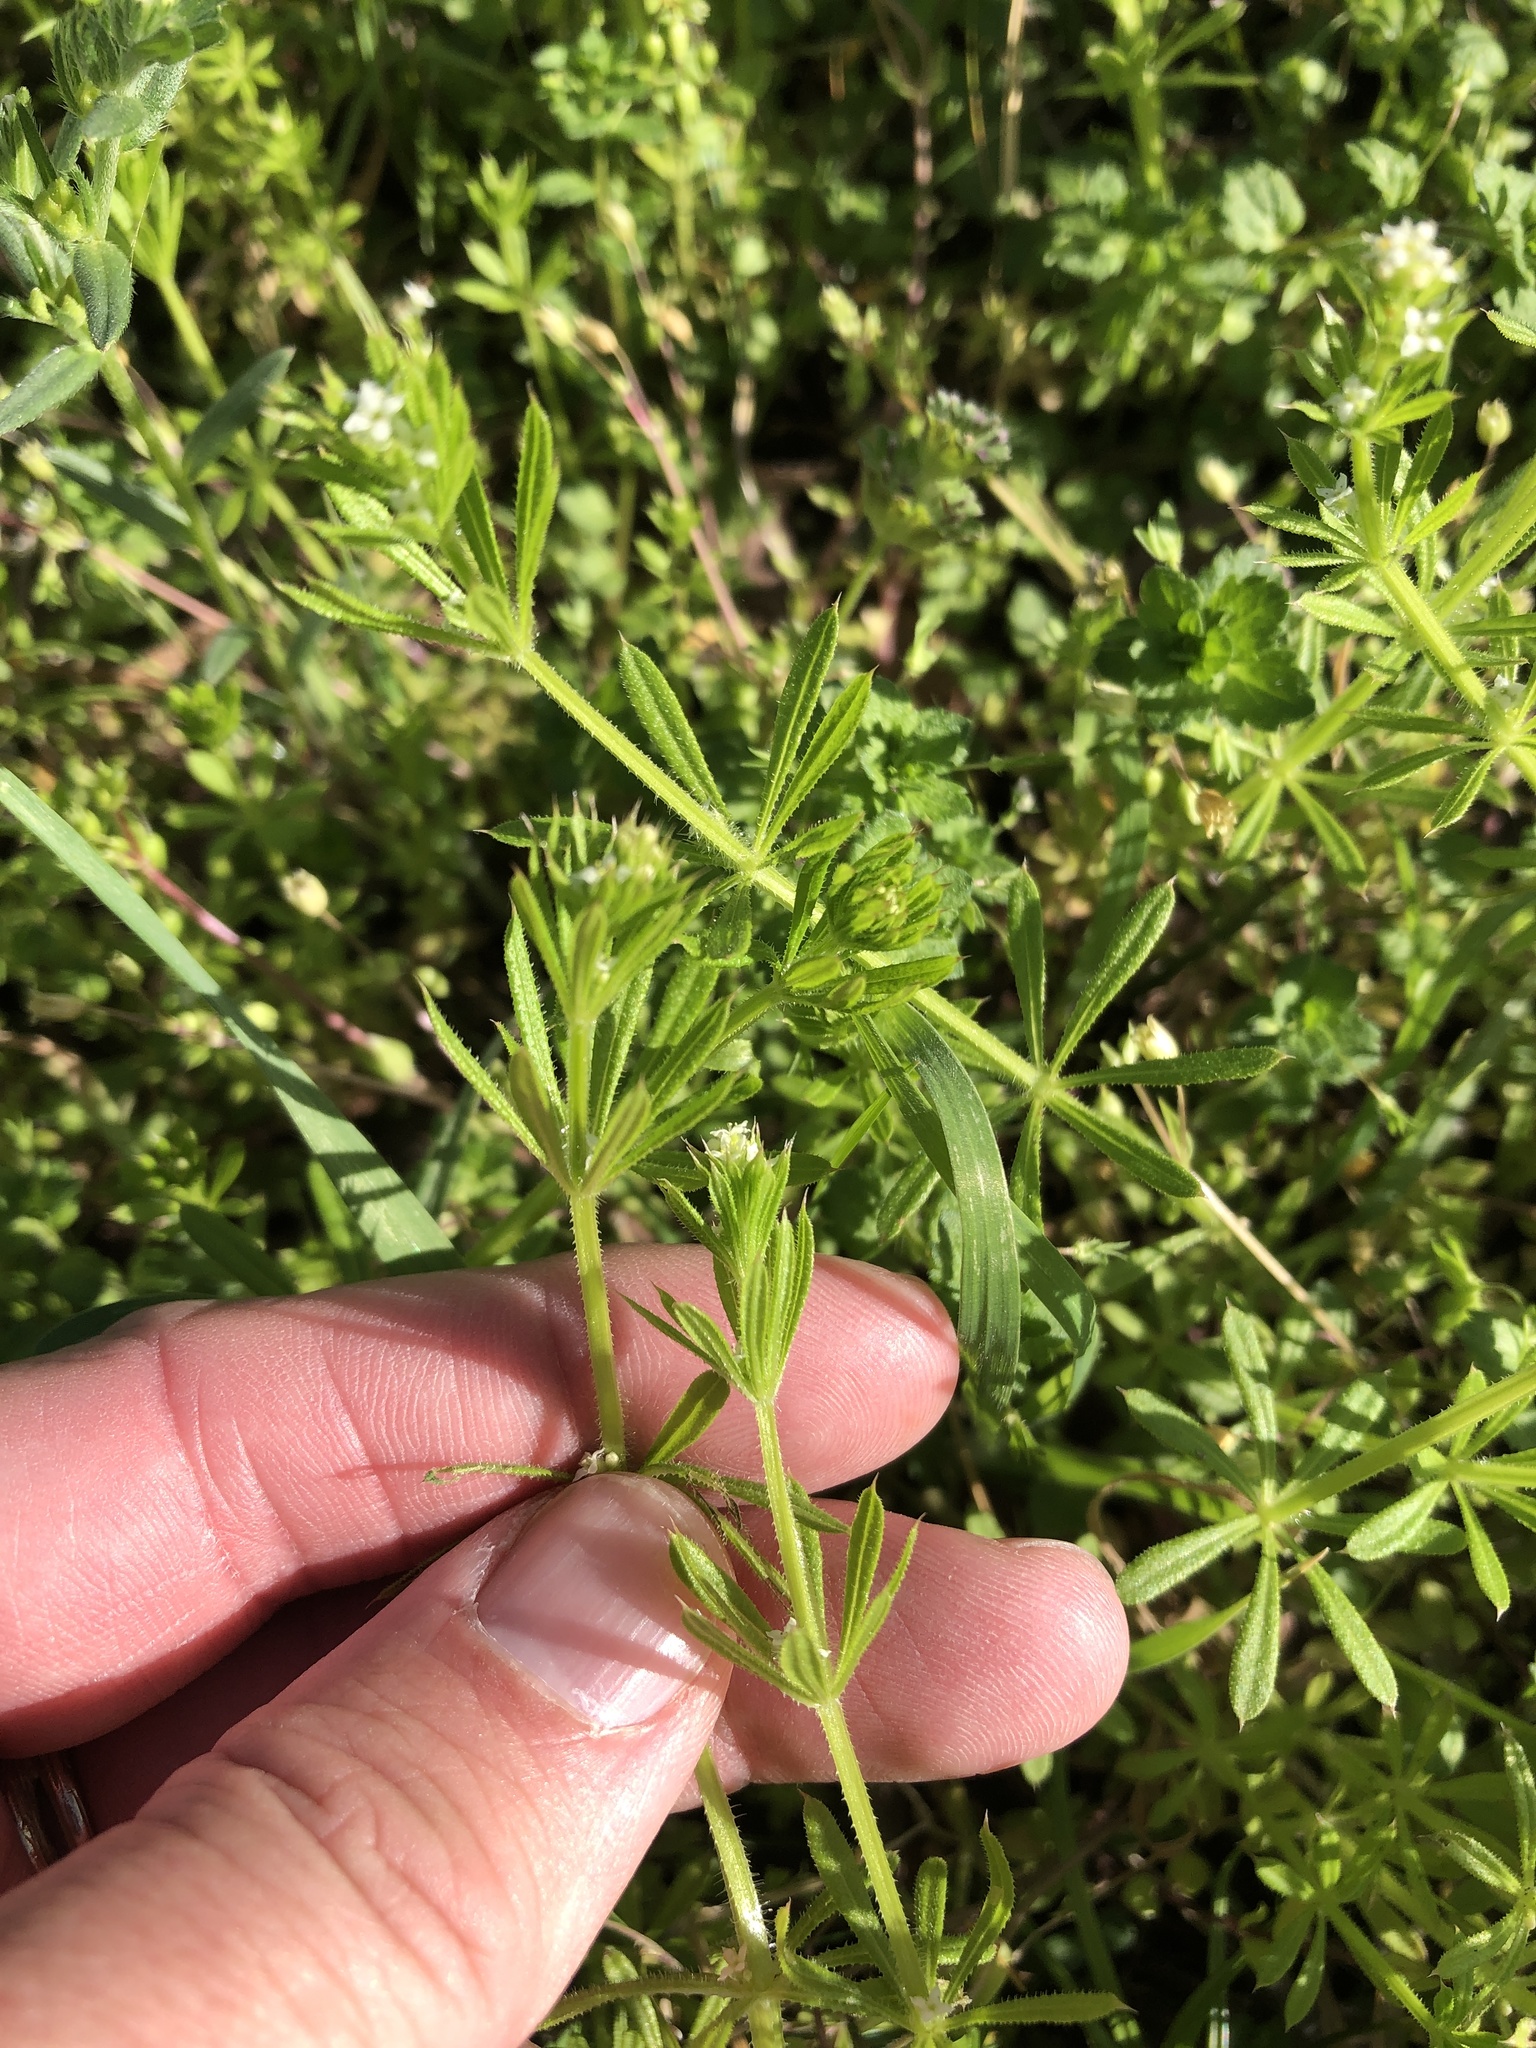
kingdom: Plantae
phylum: Tracheophyta
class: Magnoliopsida
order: Gentianales
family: Rubiaceae
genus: Galium
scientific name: Galium aparine
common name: Cleavers
